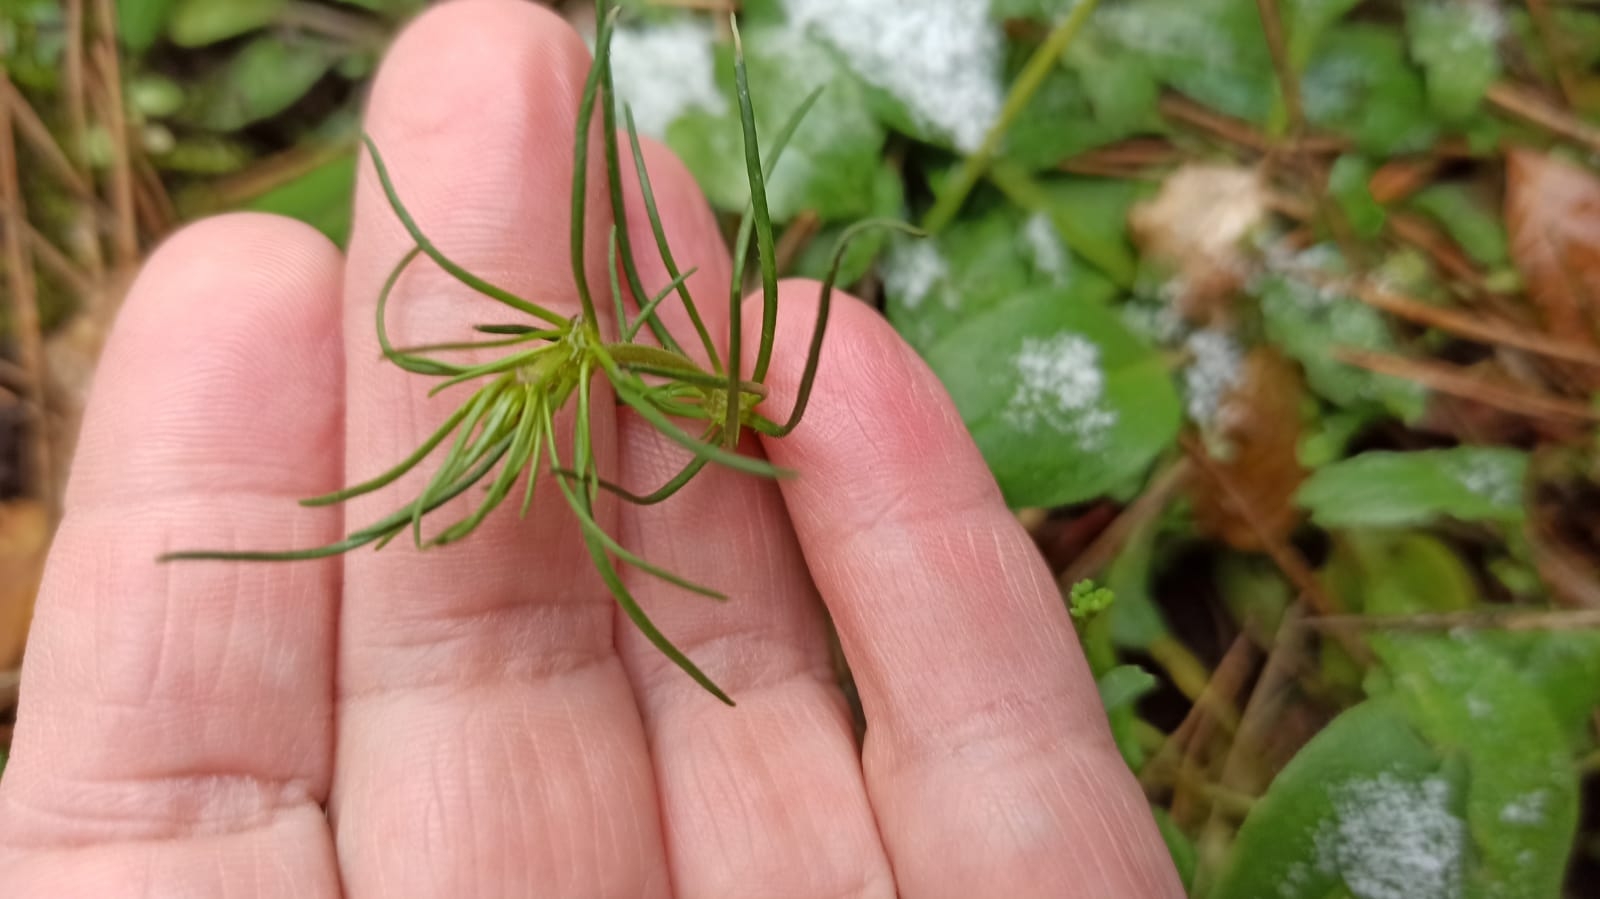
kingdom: Plantae
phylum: Tracheophyta
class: Magnoliopsida
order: Caryophyllales
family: Caryophyllaceae
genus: Spergula
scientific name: Spergula arvensis
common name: Corn spurrey
